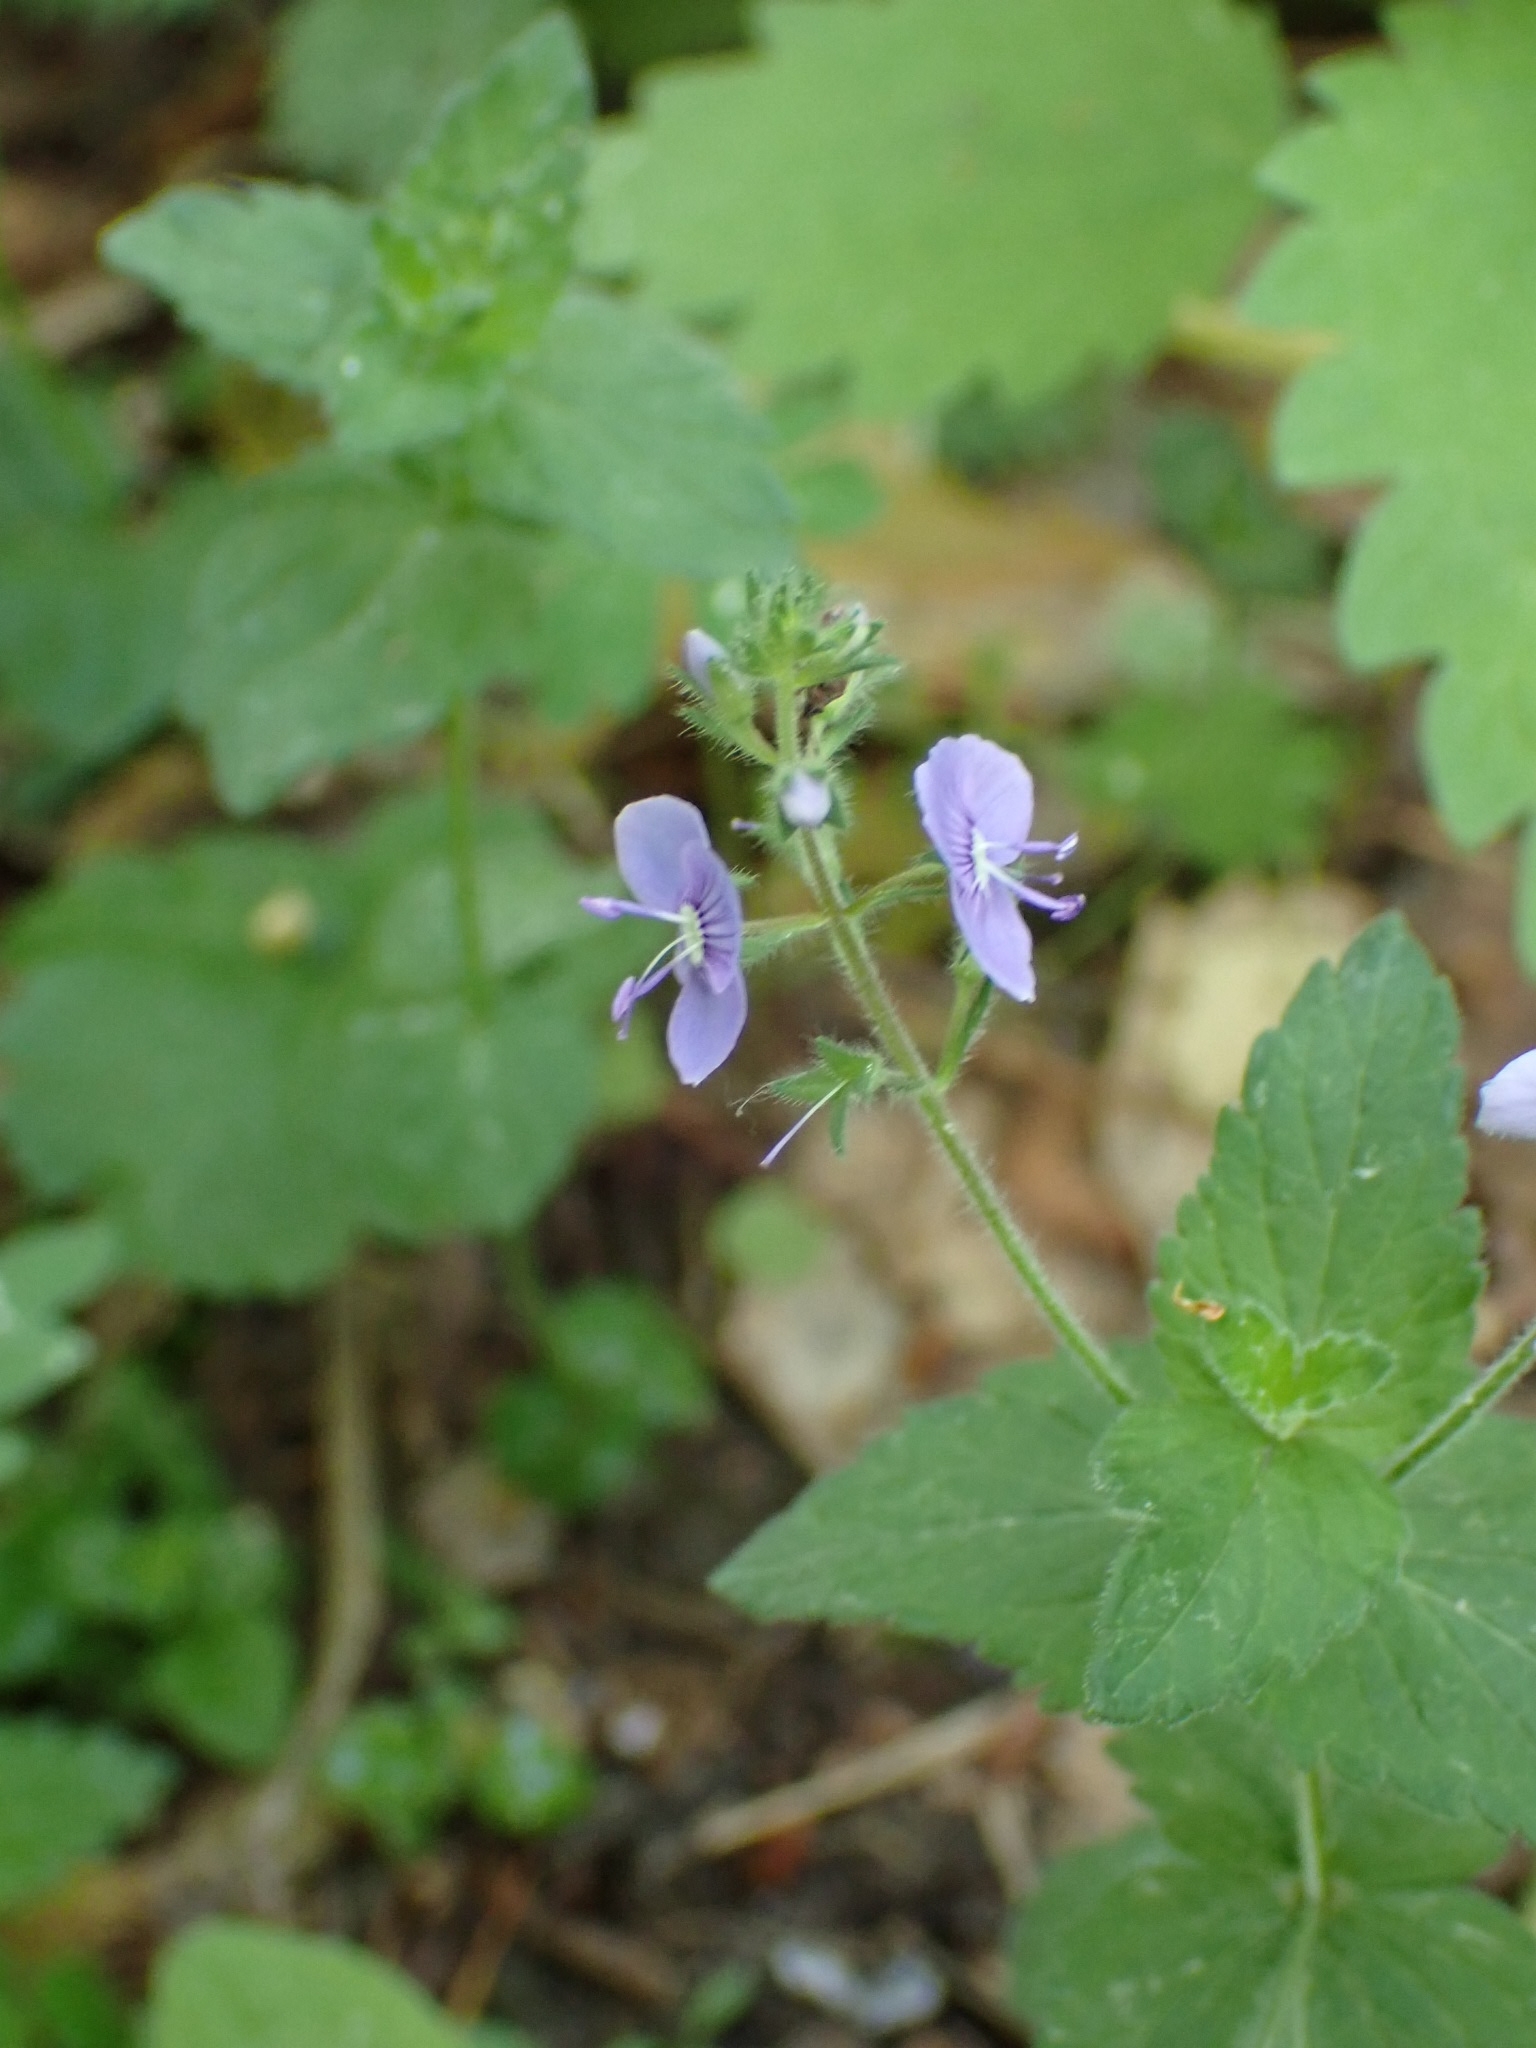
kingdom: Plantae
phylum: Tracheophyta
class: Magnoliopsida
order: Lamiales
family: Plantaginaceae
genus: Veronica
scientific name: Veronica chamaedrys
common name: Germander speedwell
